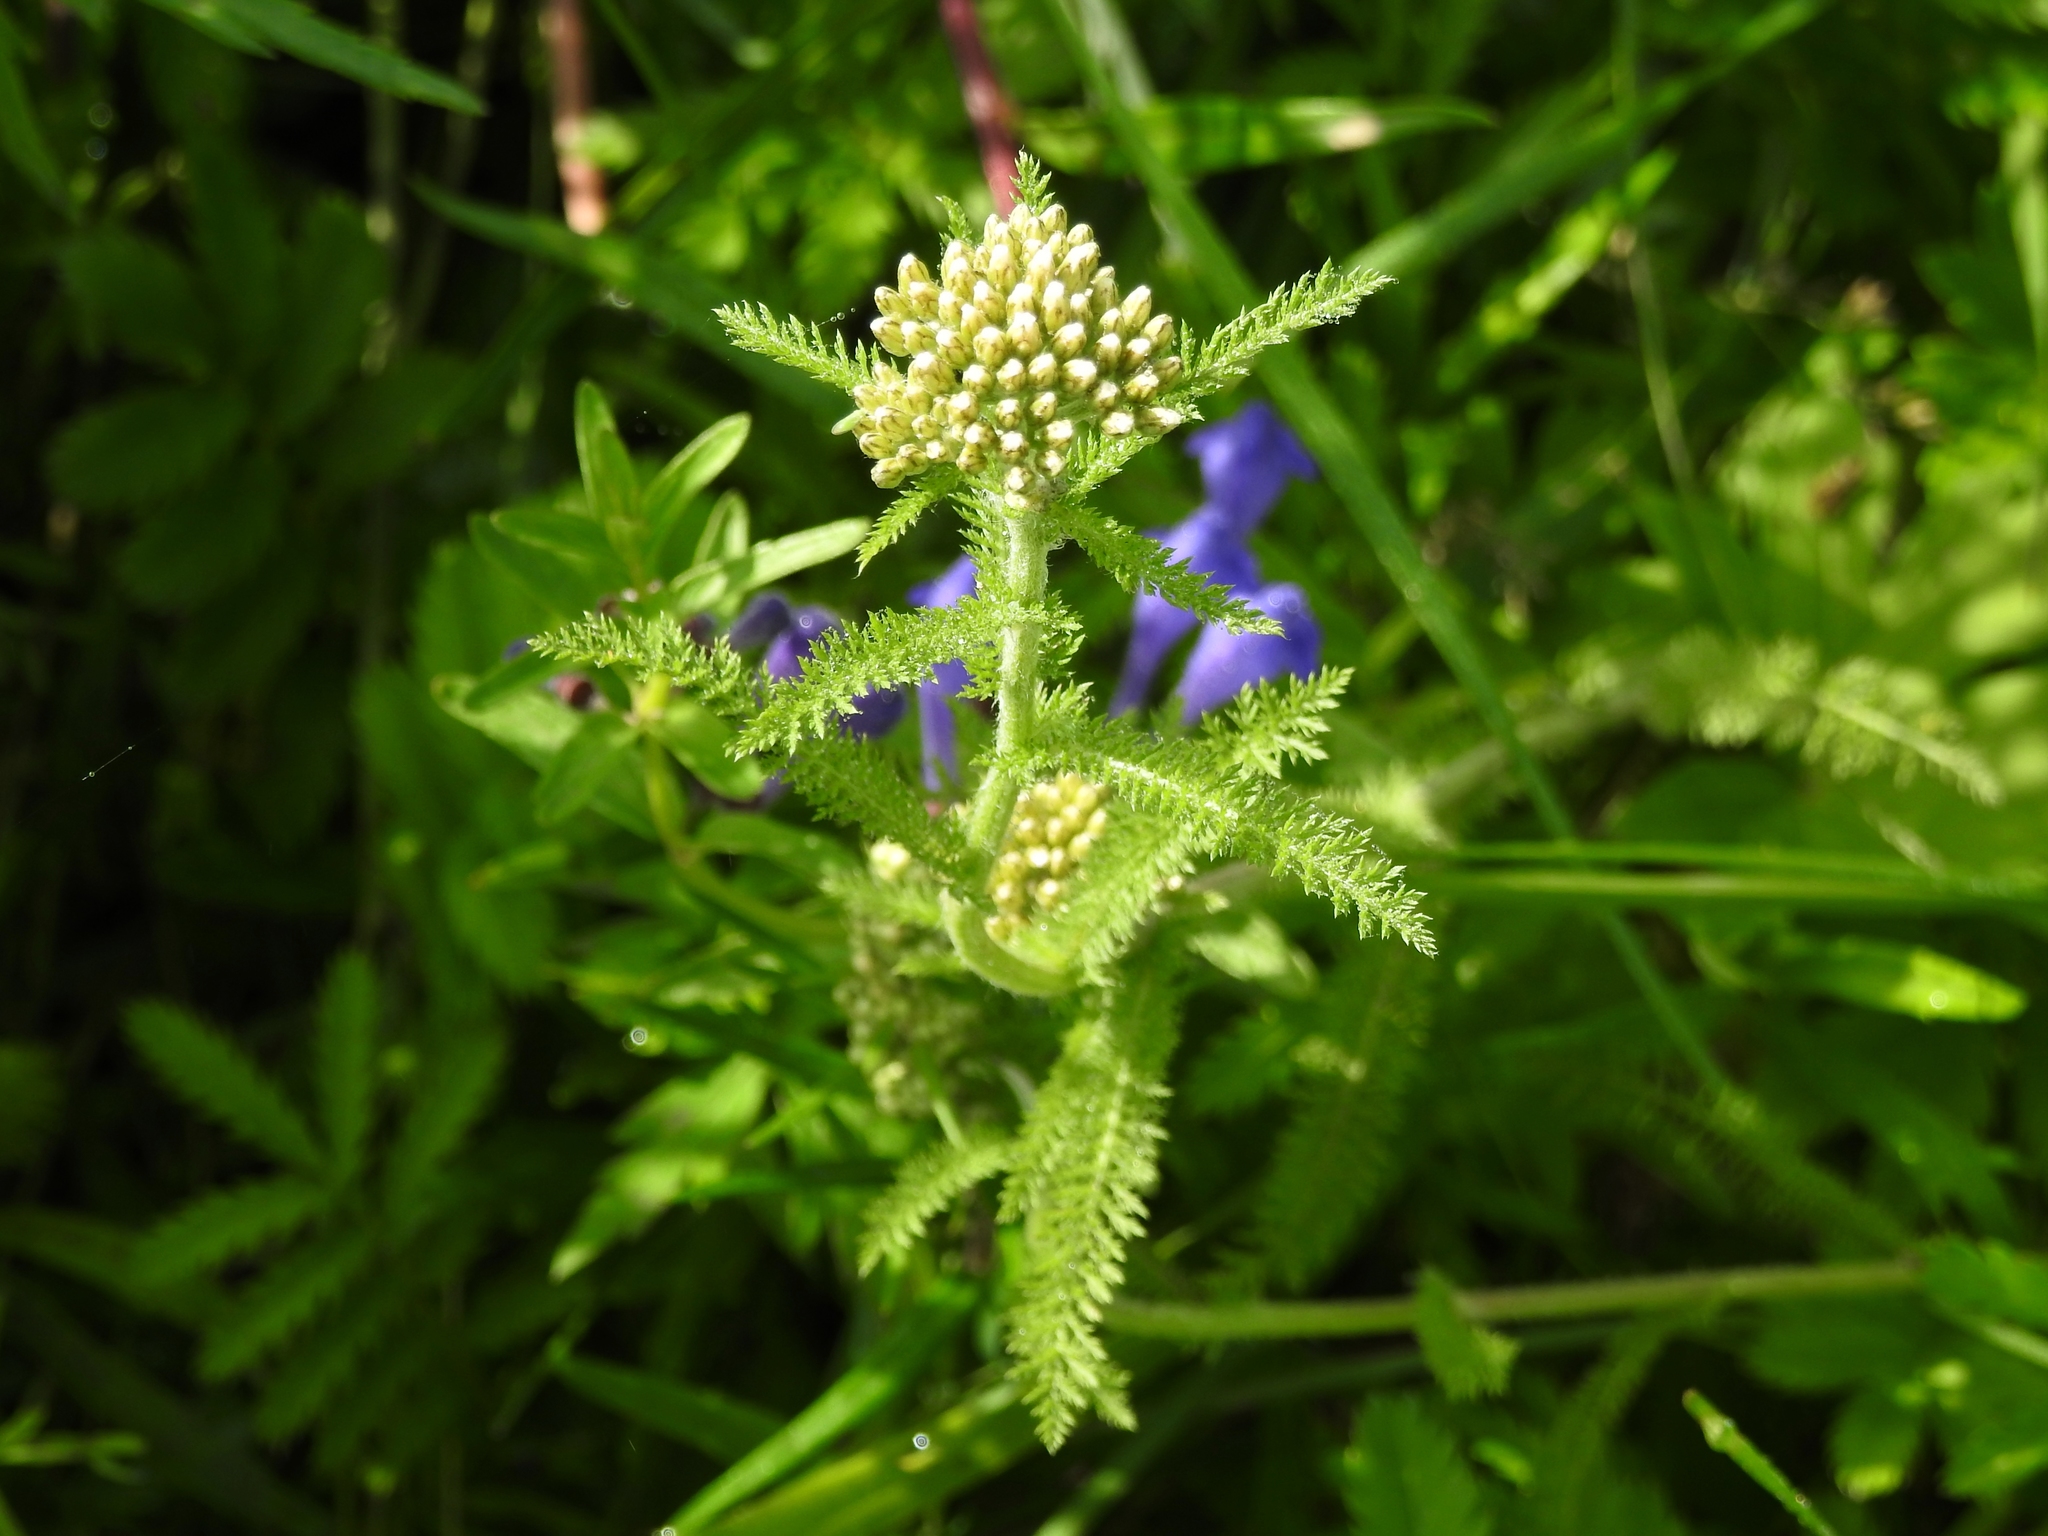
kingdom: Plantae
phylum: Tracheophyta
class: Magnoliopsida
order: Asterales
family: Asteraceae
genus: Achillea
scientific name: Achillea millefolium
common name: Yarrow
